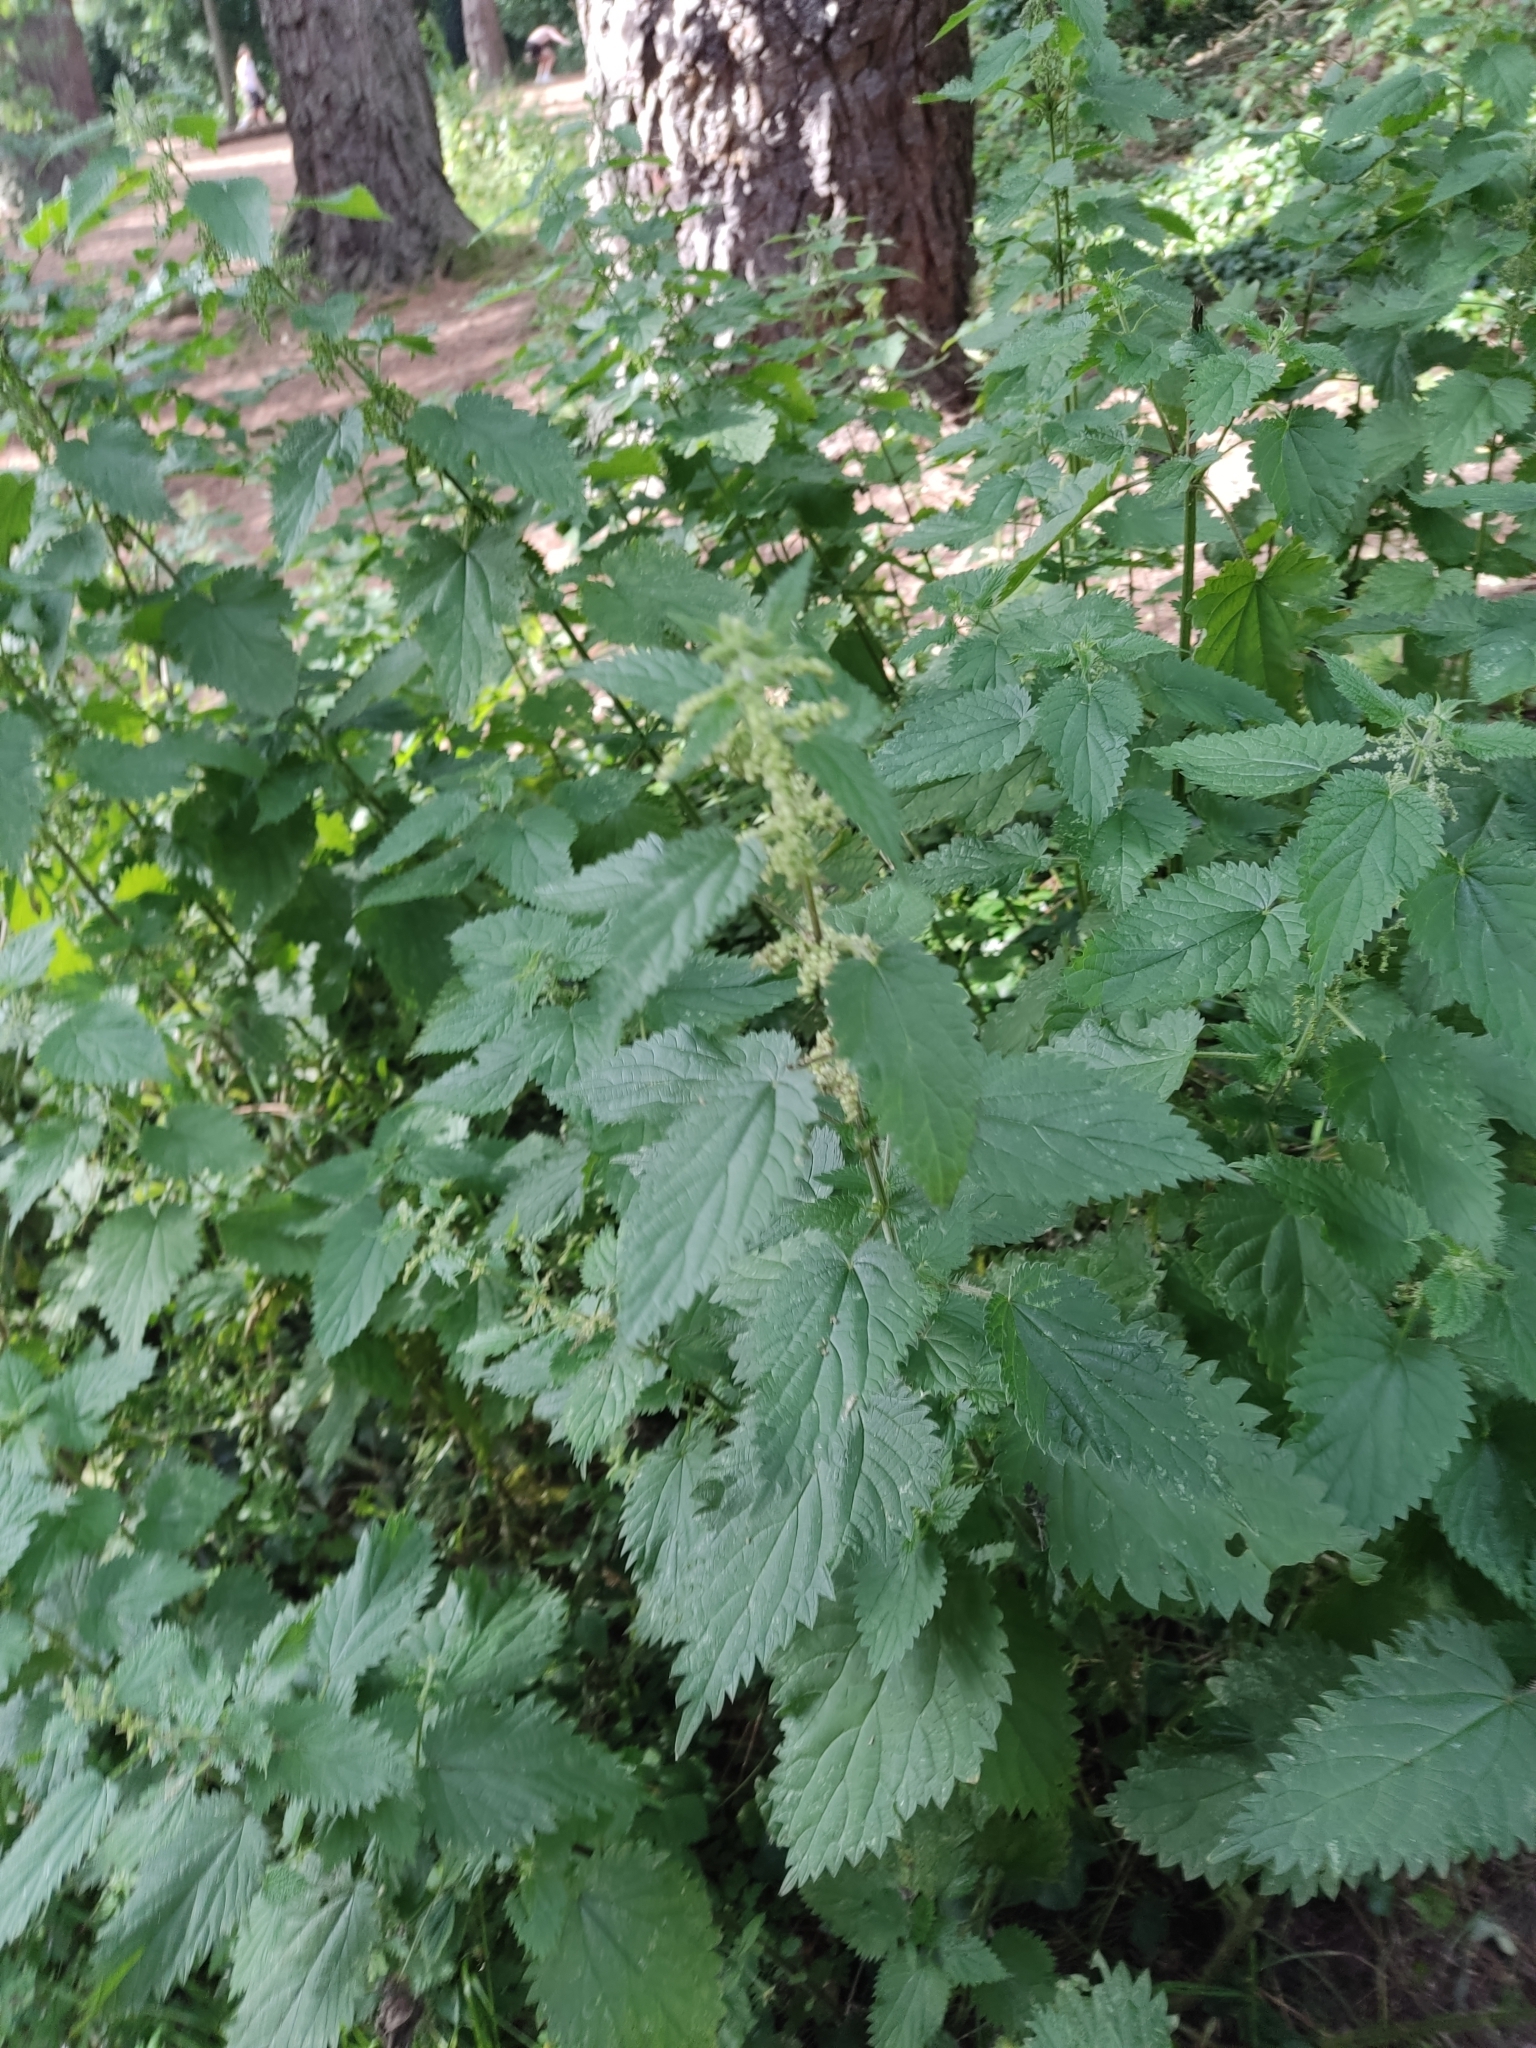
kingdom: Plantae
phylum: Tracheophyta
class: Magnoliopsida
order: Rosales
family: Urticaceae
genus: Urtica
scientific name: Urtica dioica
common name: Common nettle
